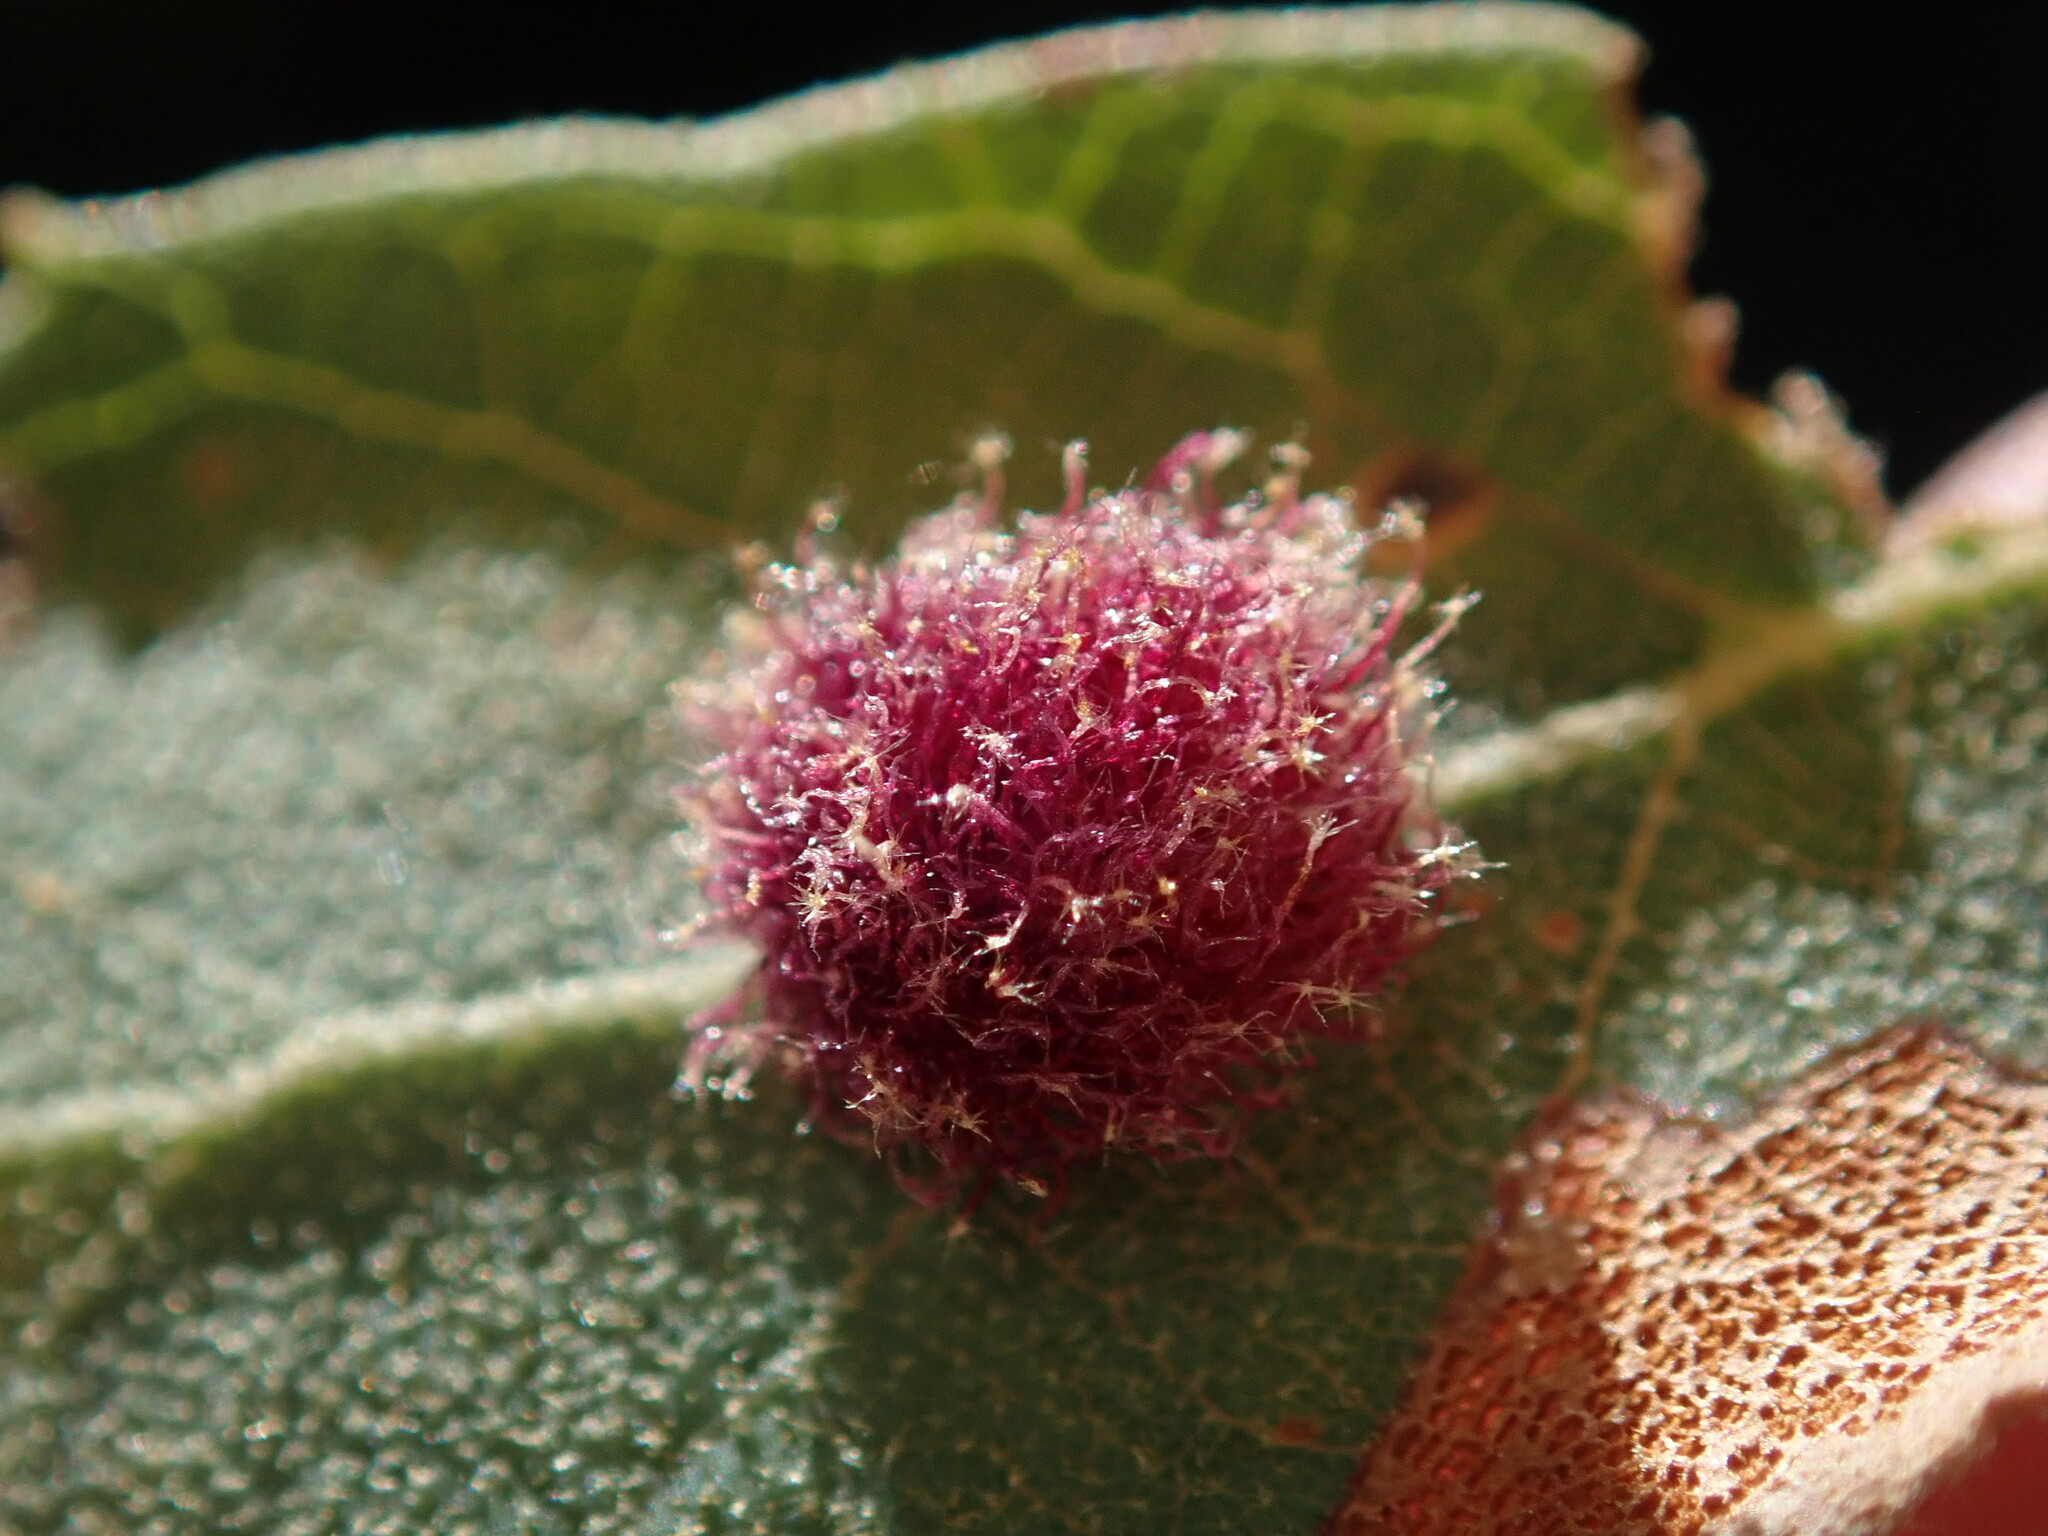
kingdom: Animalia
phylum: Arthropoda
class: Insecta
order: Hymenoptera
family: Cynipidae
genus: Andricus
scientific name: Andricus
